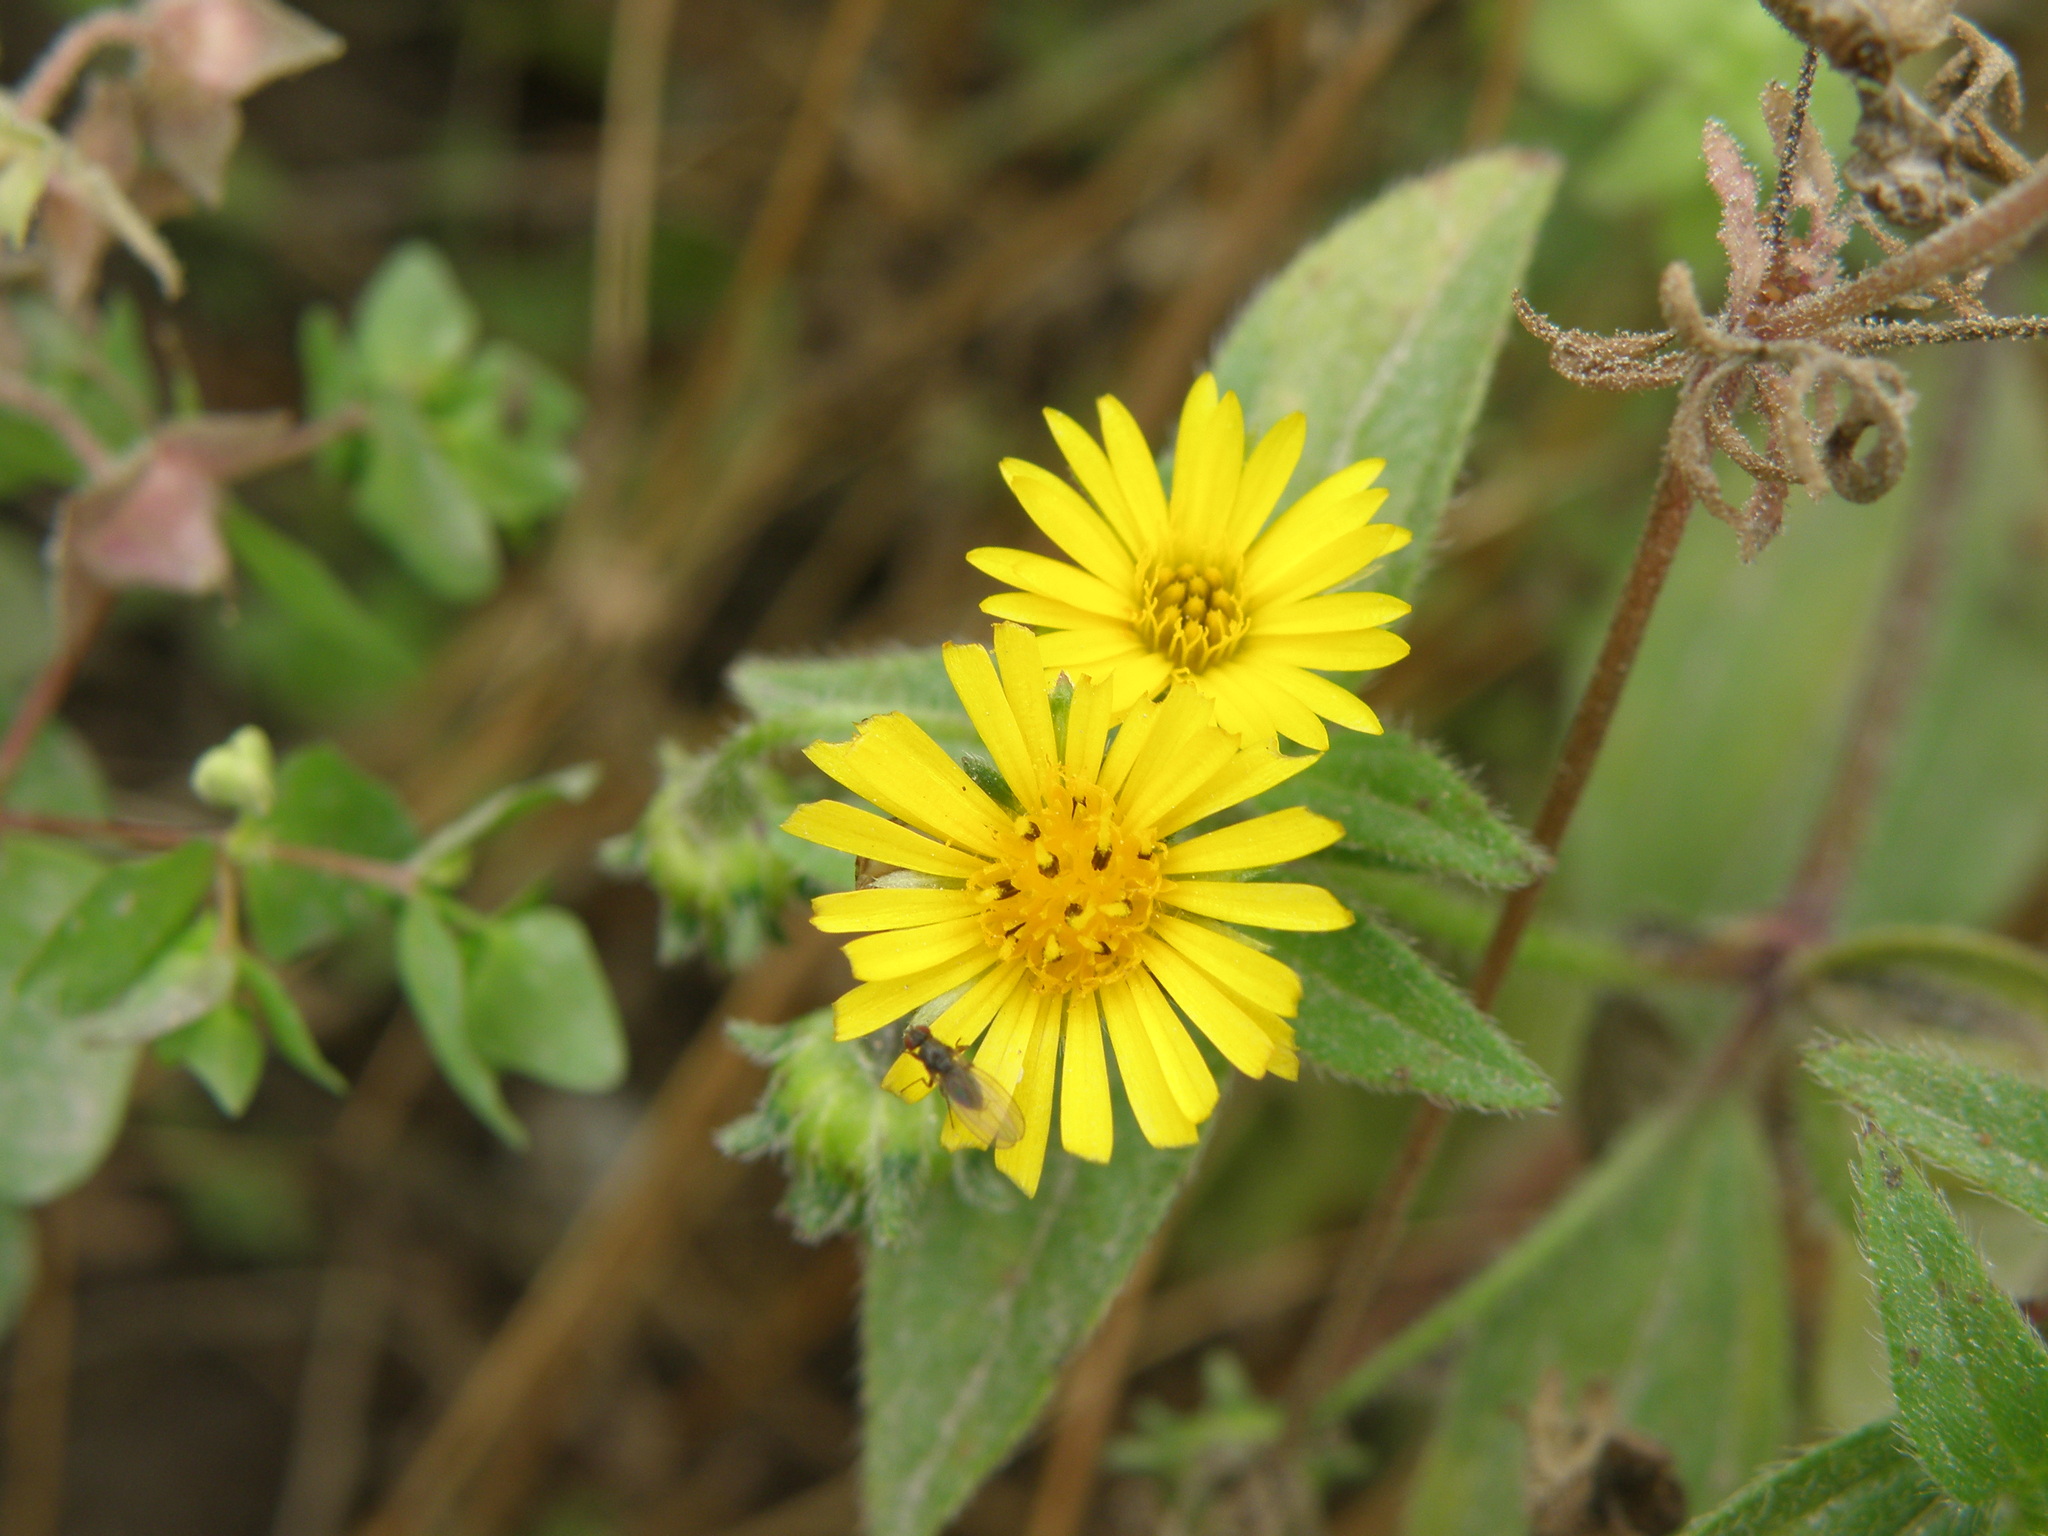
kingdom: Plantae
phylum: Tracheophyta
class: Magnoliopsida
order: Asterales
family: Asteraceae
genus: Philoglossa
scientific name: Philoglossa peruviana
